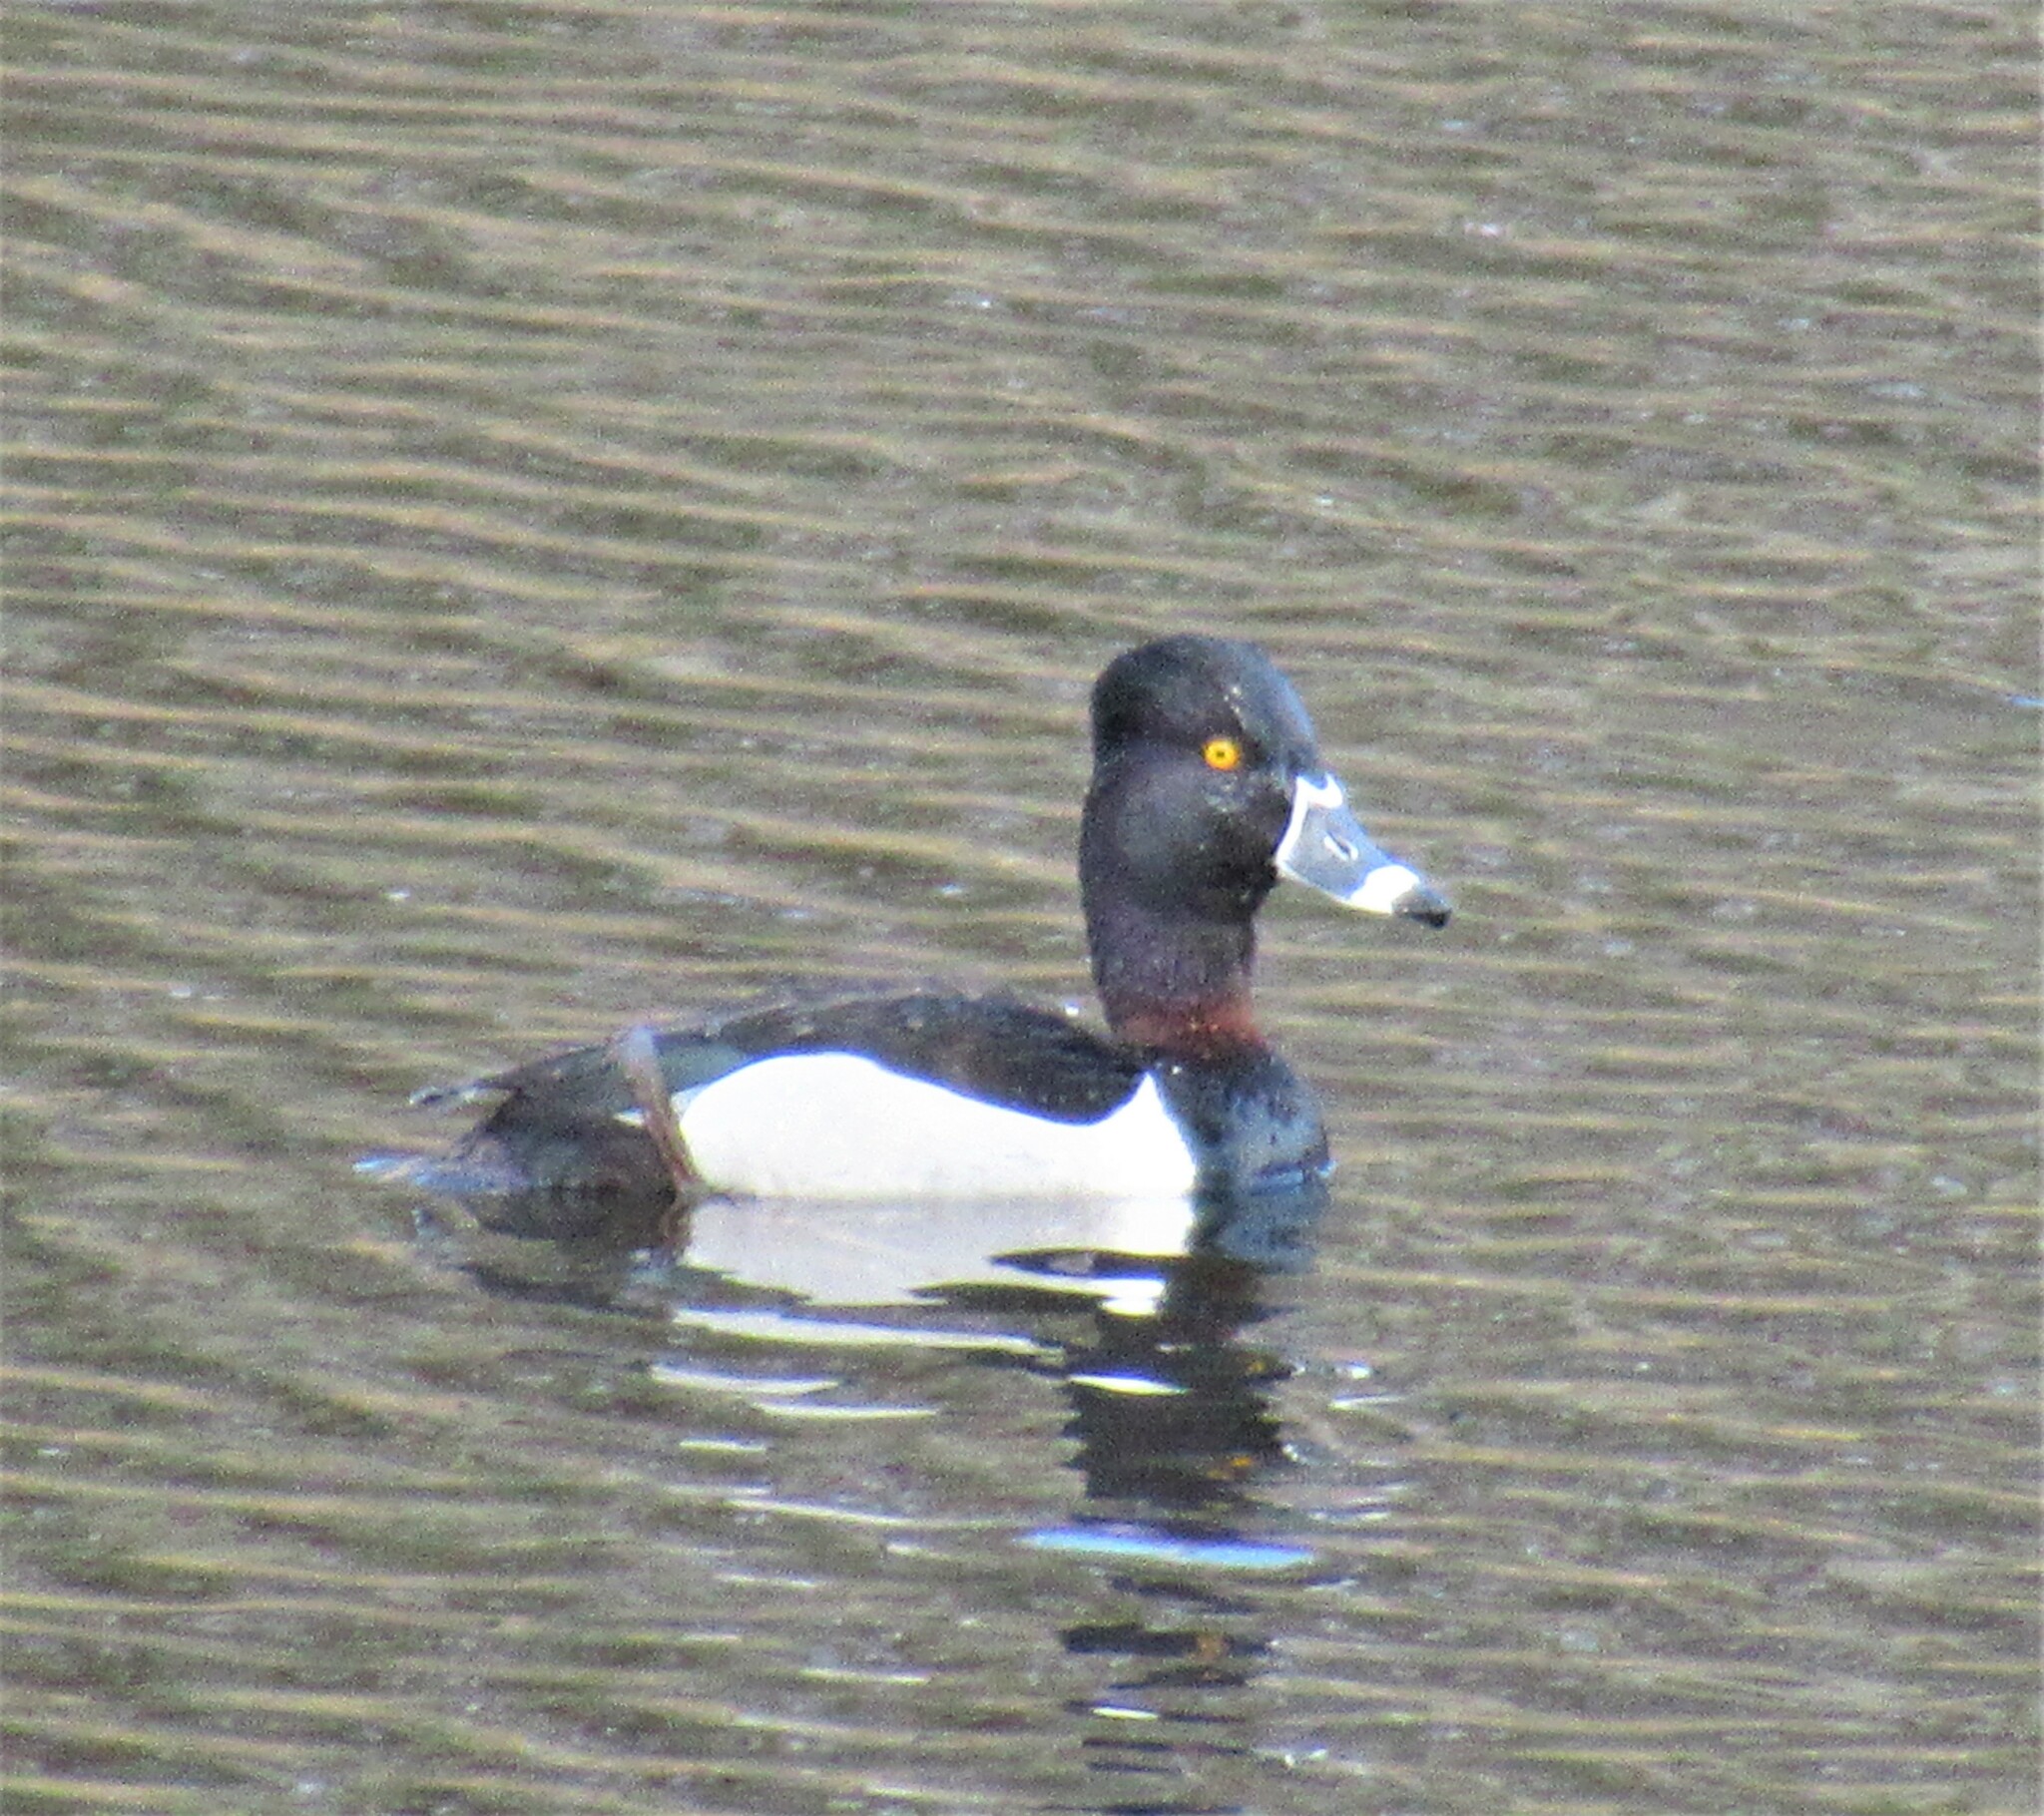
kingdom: Animalia
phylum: Chordata
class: Aves
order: Anseriformes
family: Anatidae
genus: Aythya
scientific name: Aythya collaris
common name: Ring-necked duck
